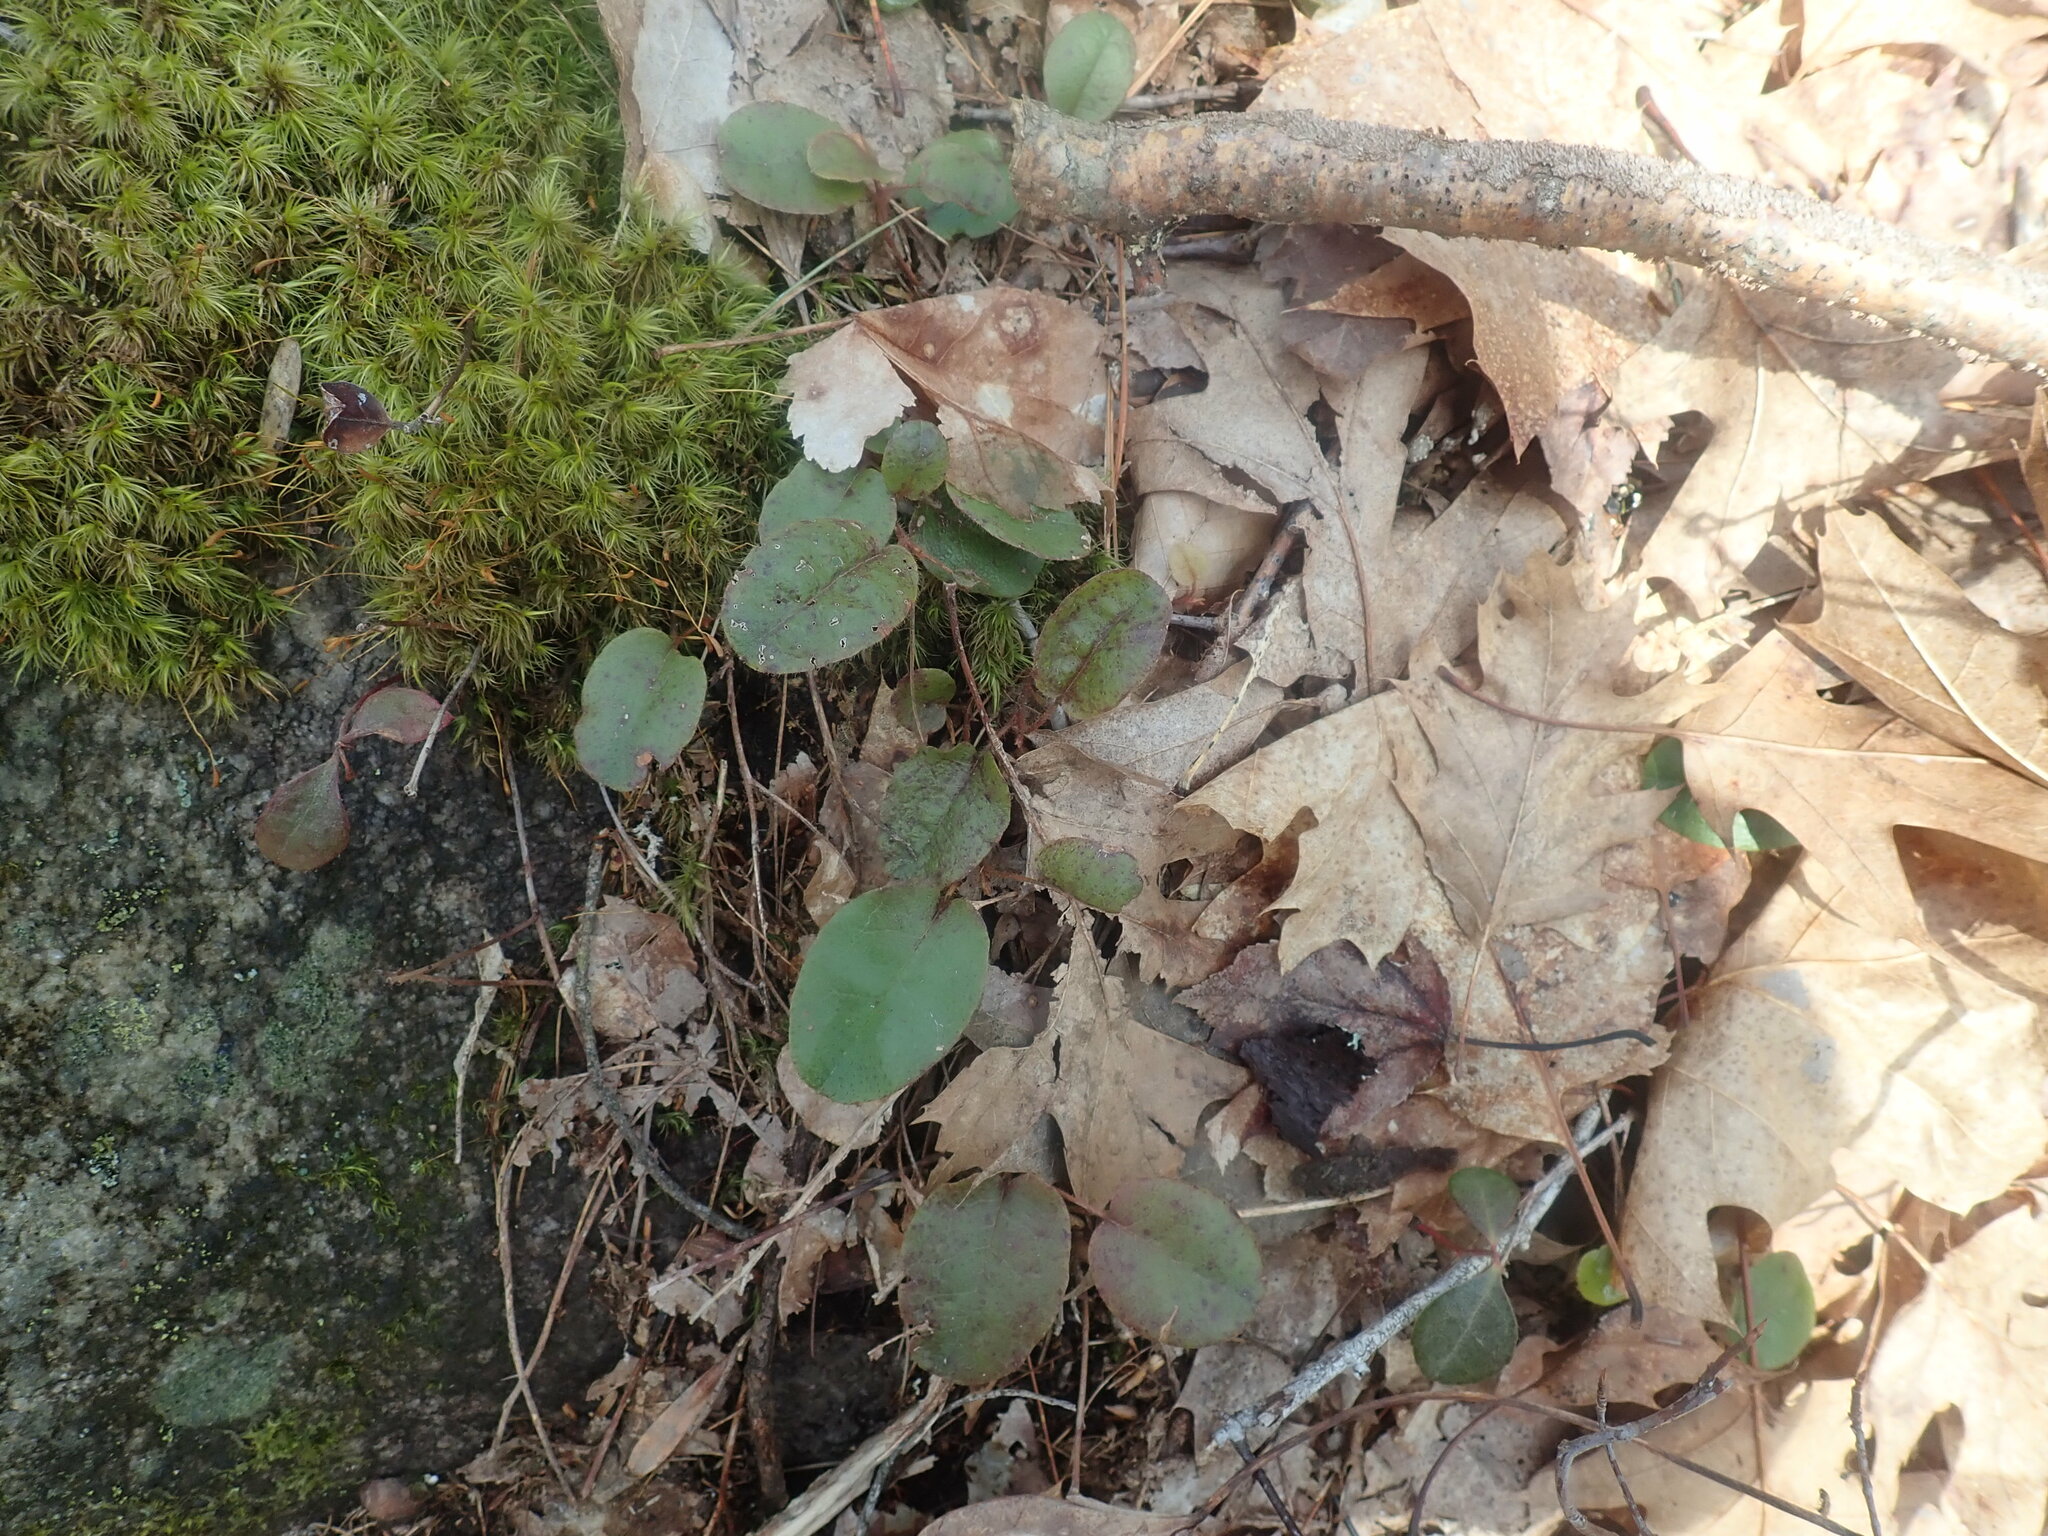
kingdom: Plantae
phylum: Tracheophyta
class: Magnoliopsida
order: Ericales
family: Ericaceae
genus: Epigaea
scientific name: Epigaea repens
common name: Gravelroot
